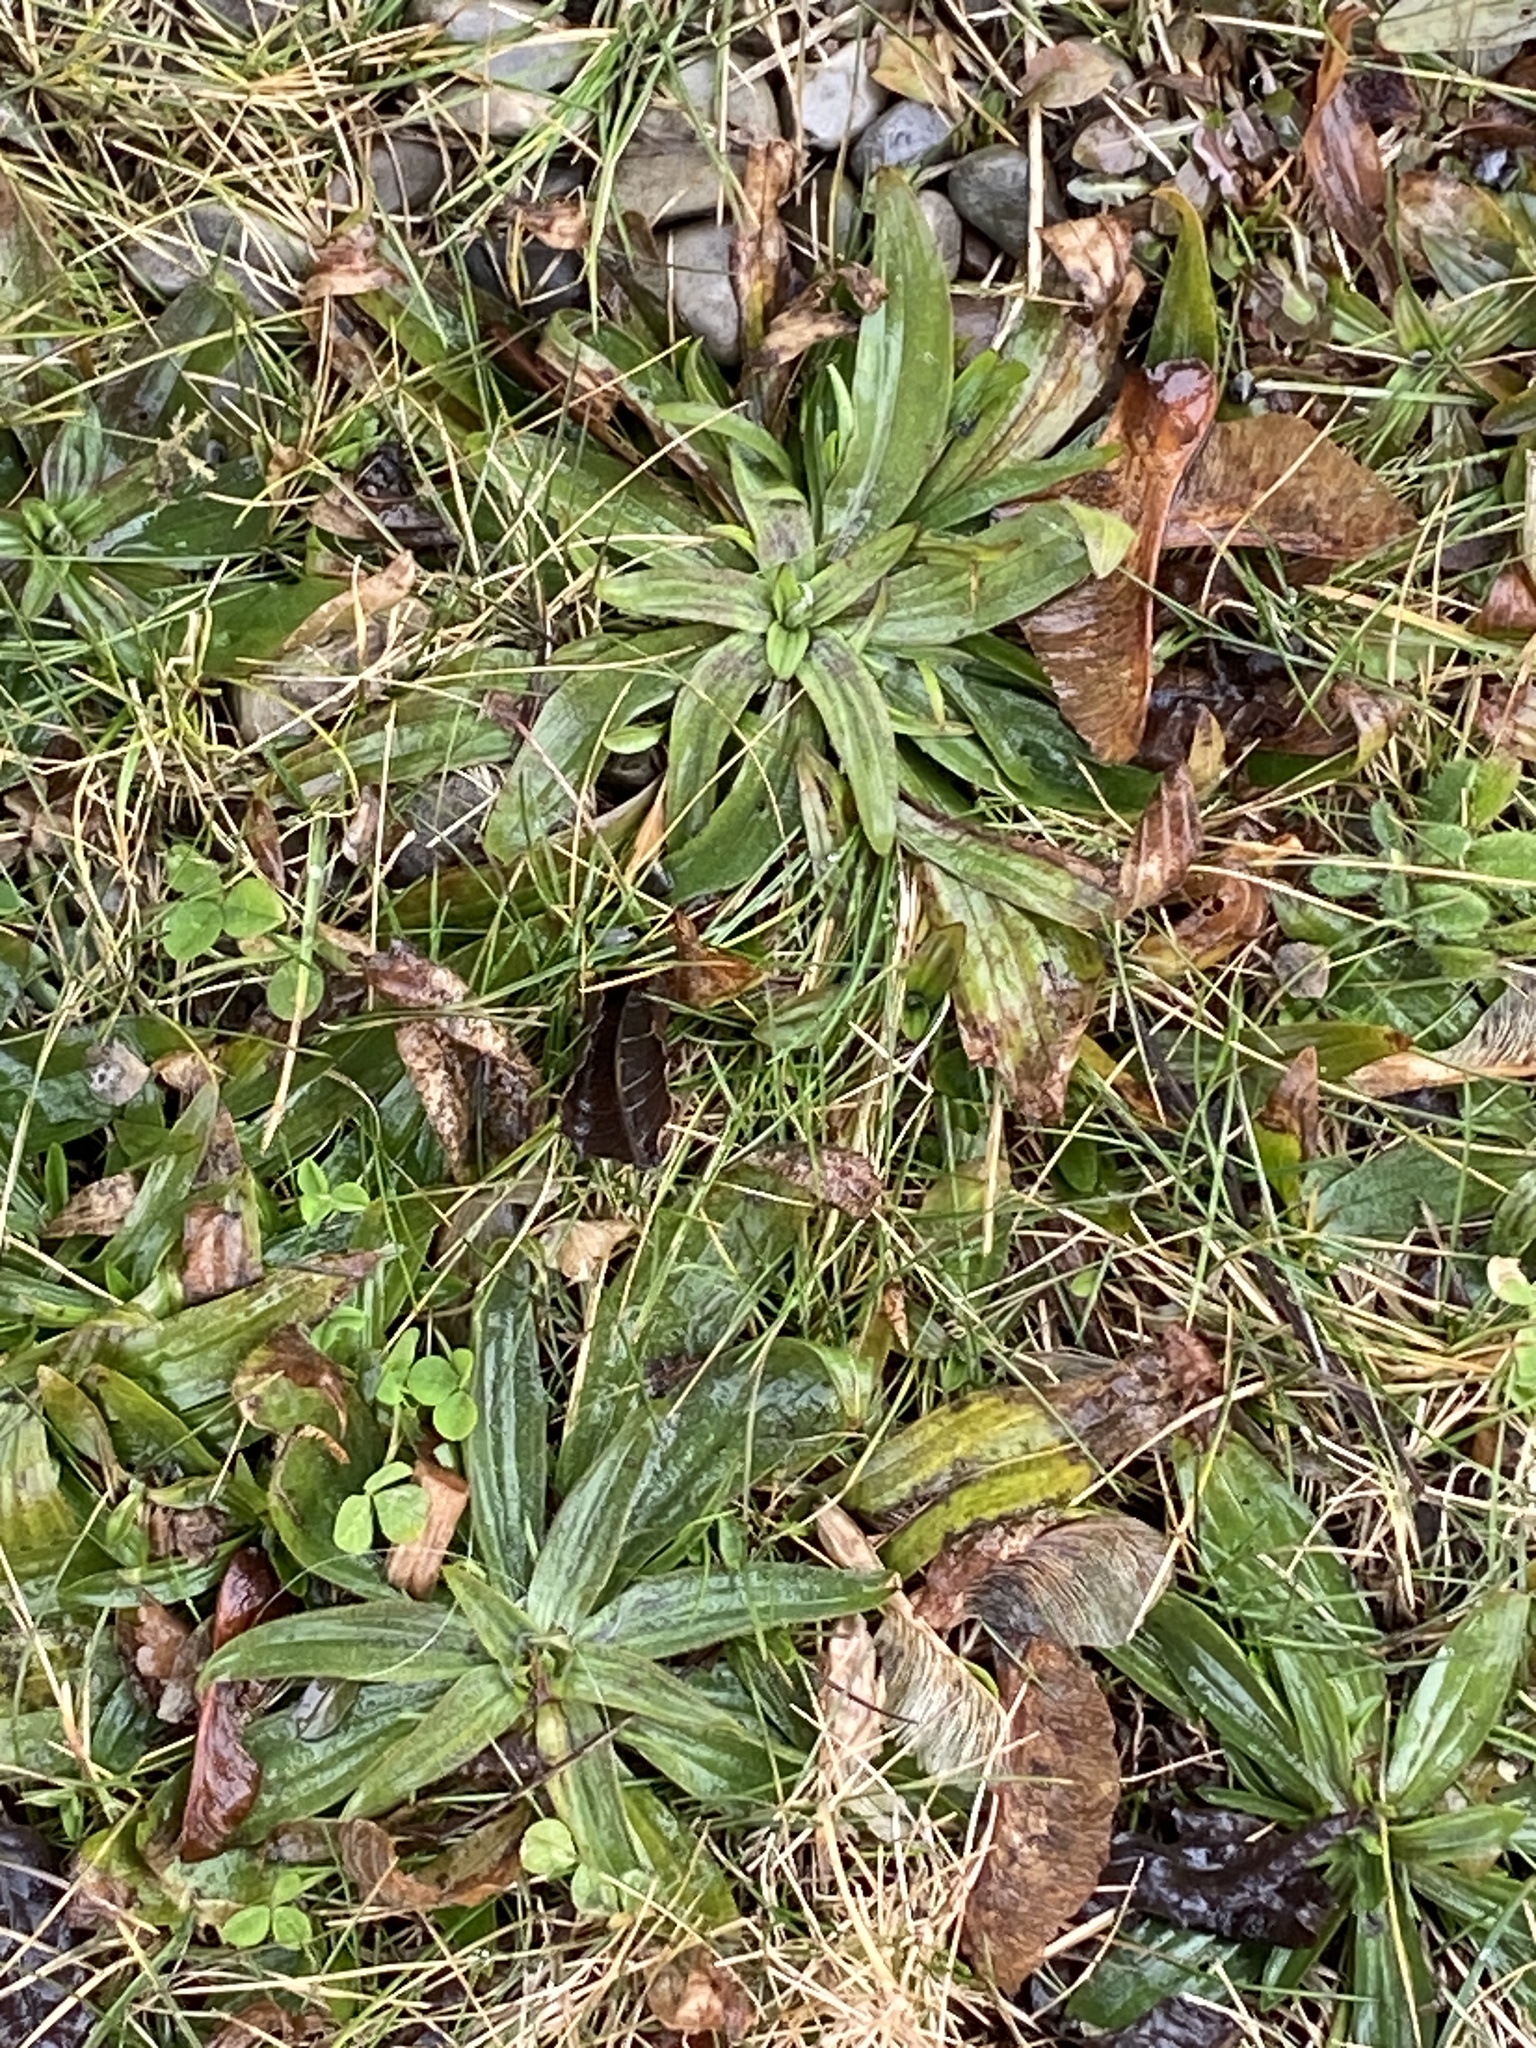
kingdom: Plantae
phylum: Tracheophyta
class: Magnoliopsida
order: Lamiales
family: Plantaginaceae
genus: Plantago
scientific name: Plantago lanceolata
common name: Ribwort plantain
